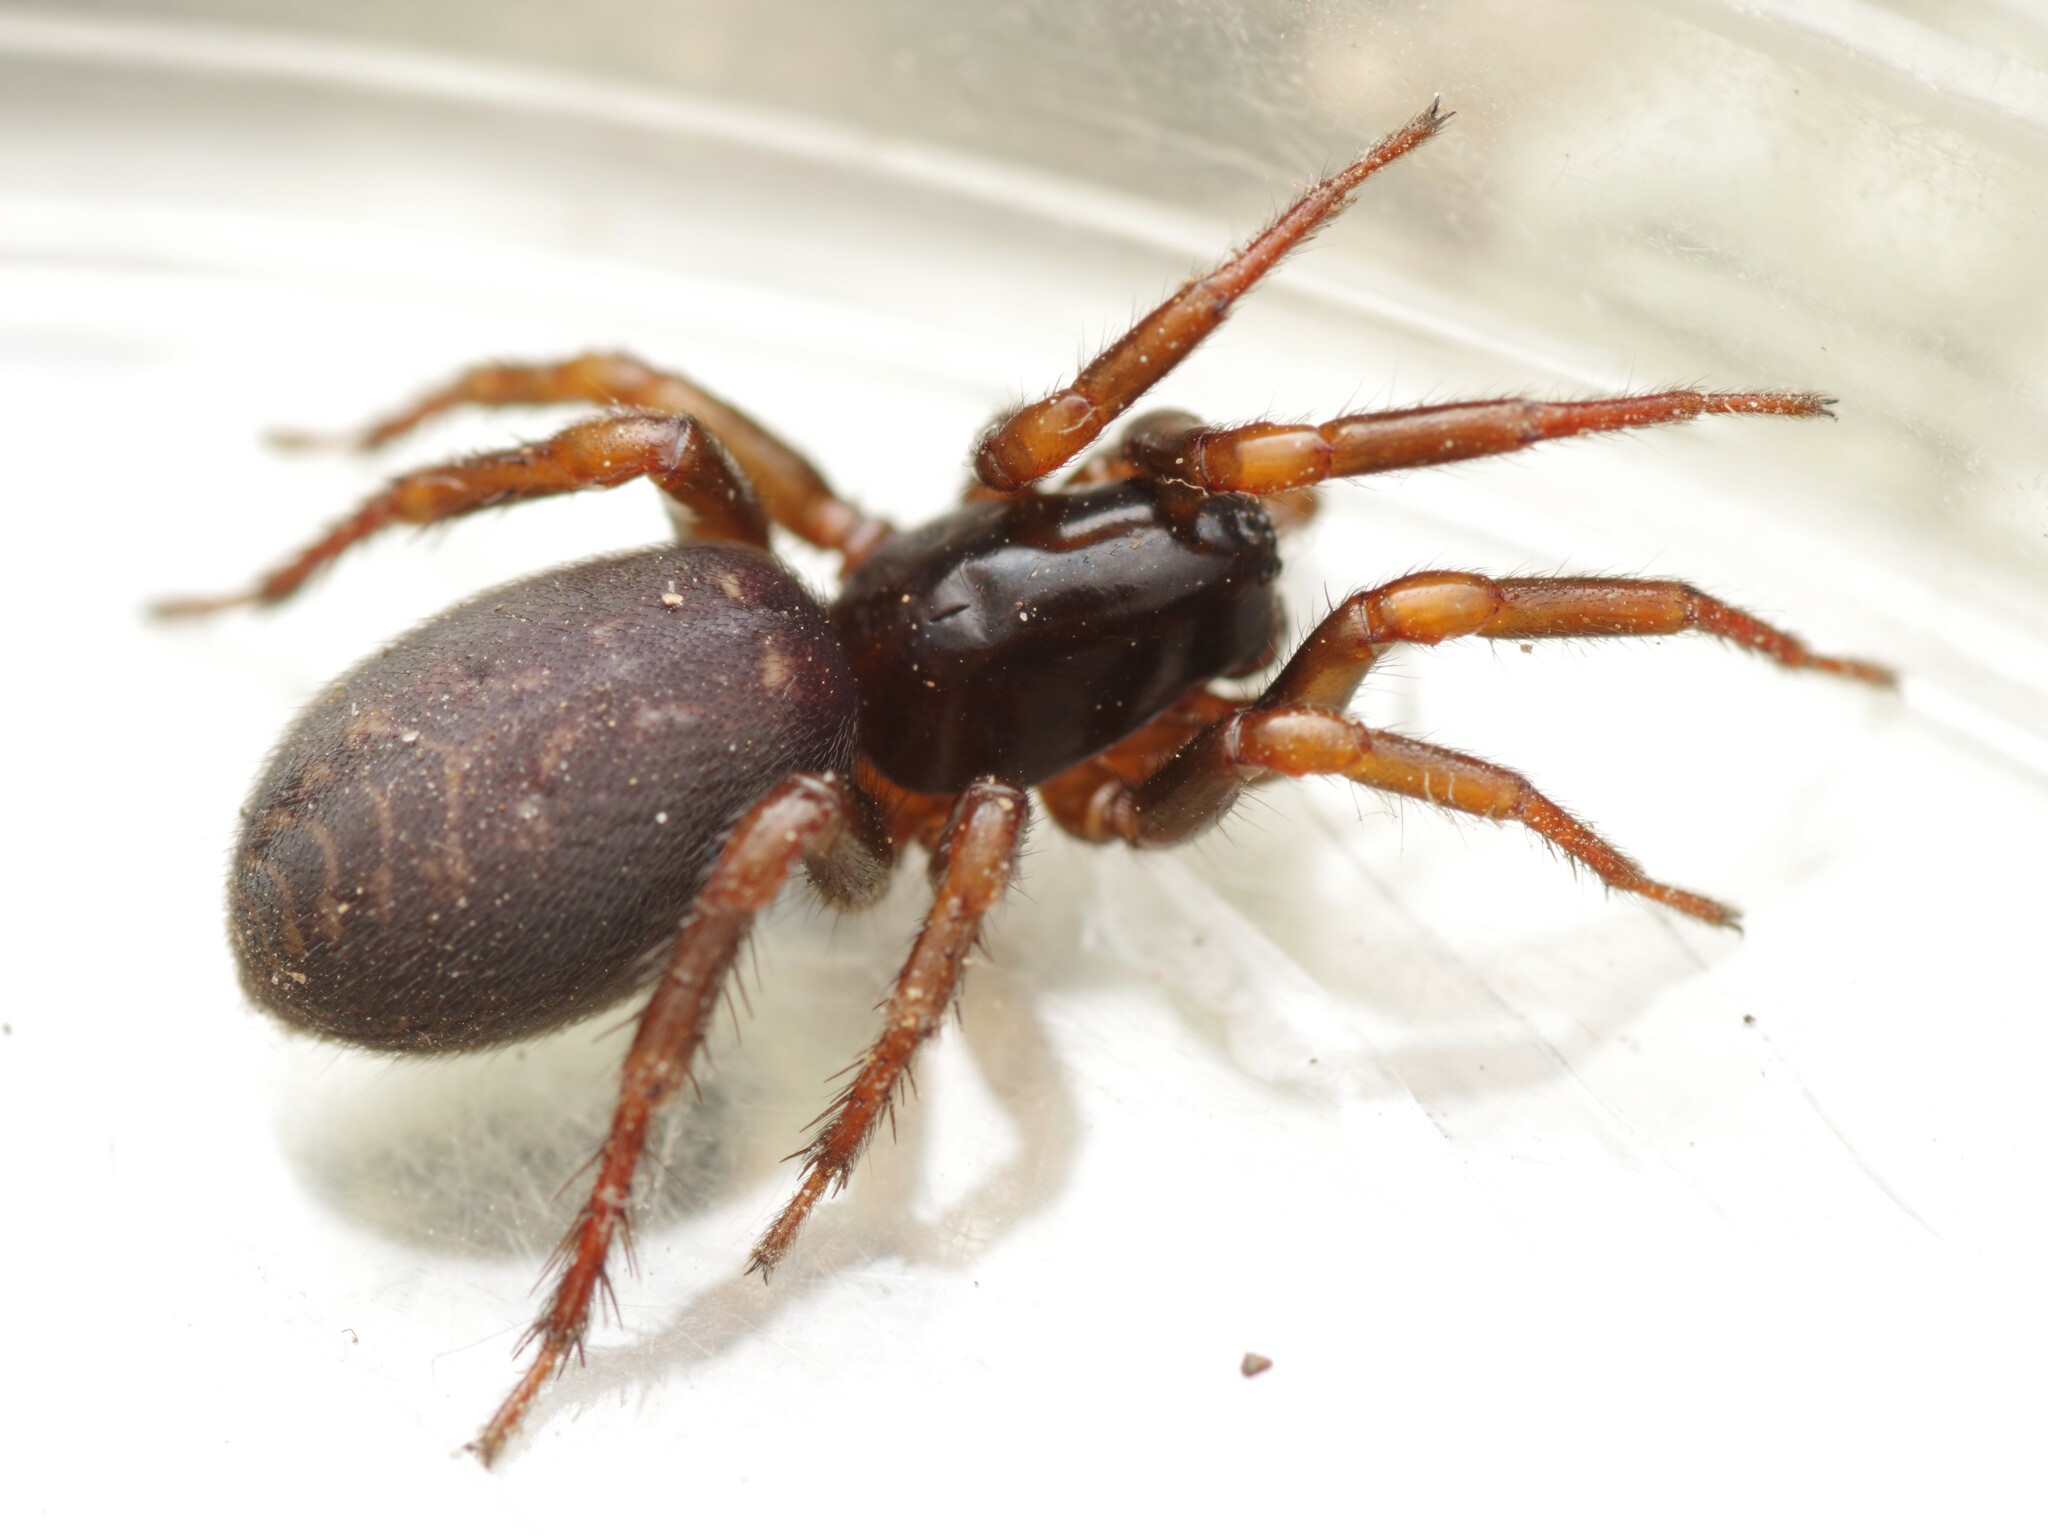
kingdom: Animalia
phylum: Arthropoda
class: Arachnida
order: Araneae
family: Zodariidae
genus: Selamia
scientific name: Selamia reticulata
